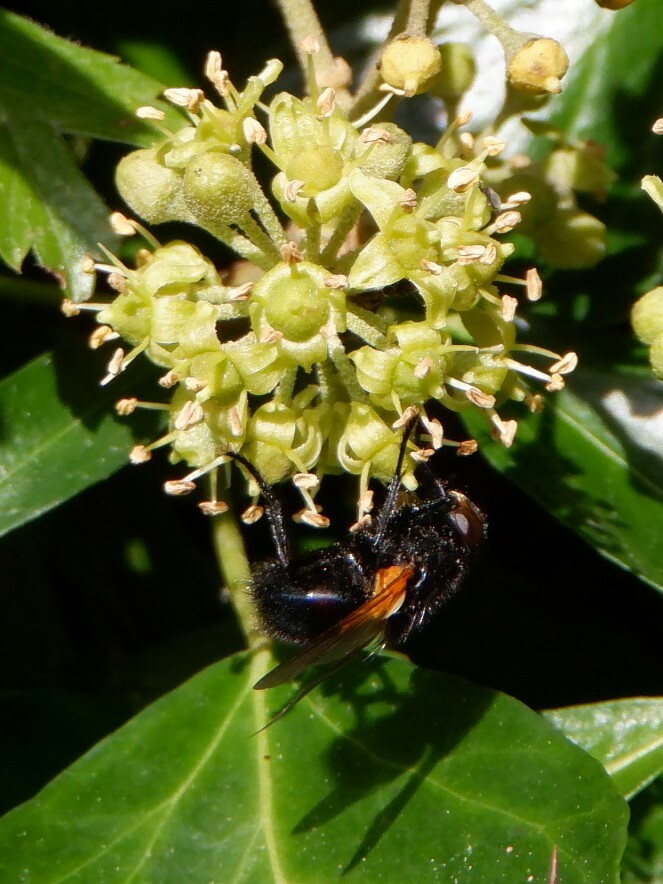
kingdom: Animalia
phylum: Arthropoda
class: Insecta
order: Diptera
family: Muscidae
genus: Mesembrina
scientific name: Mesembrina meridiana
